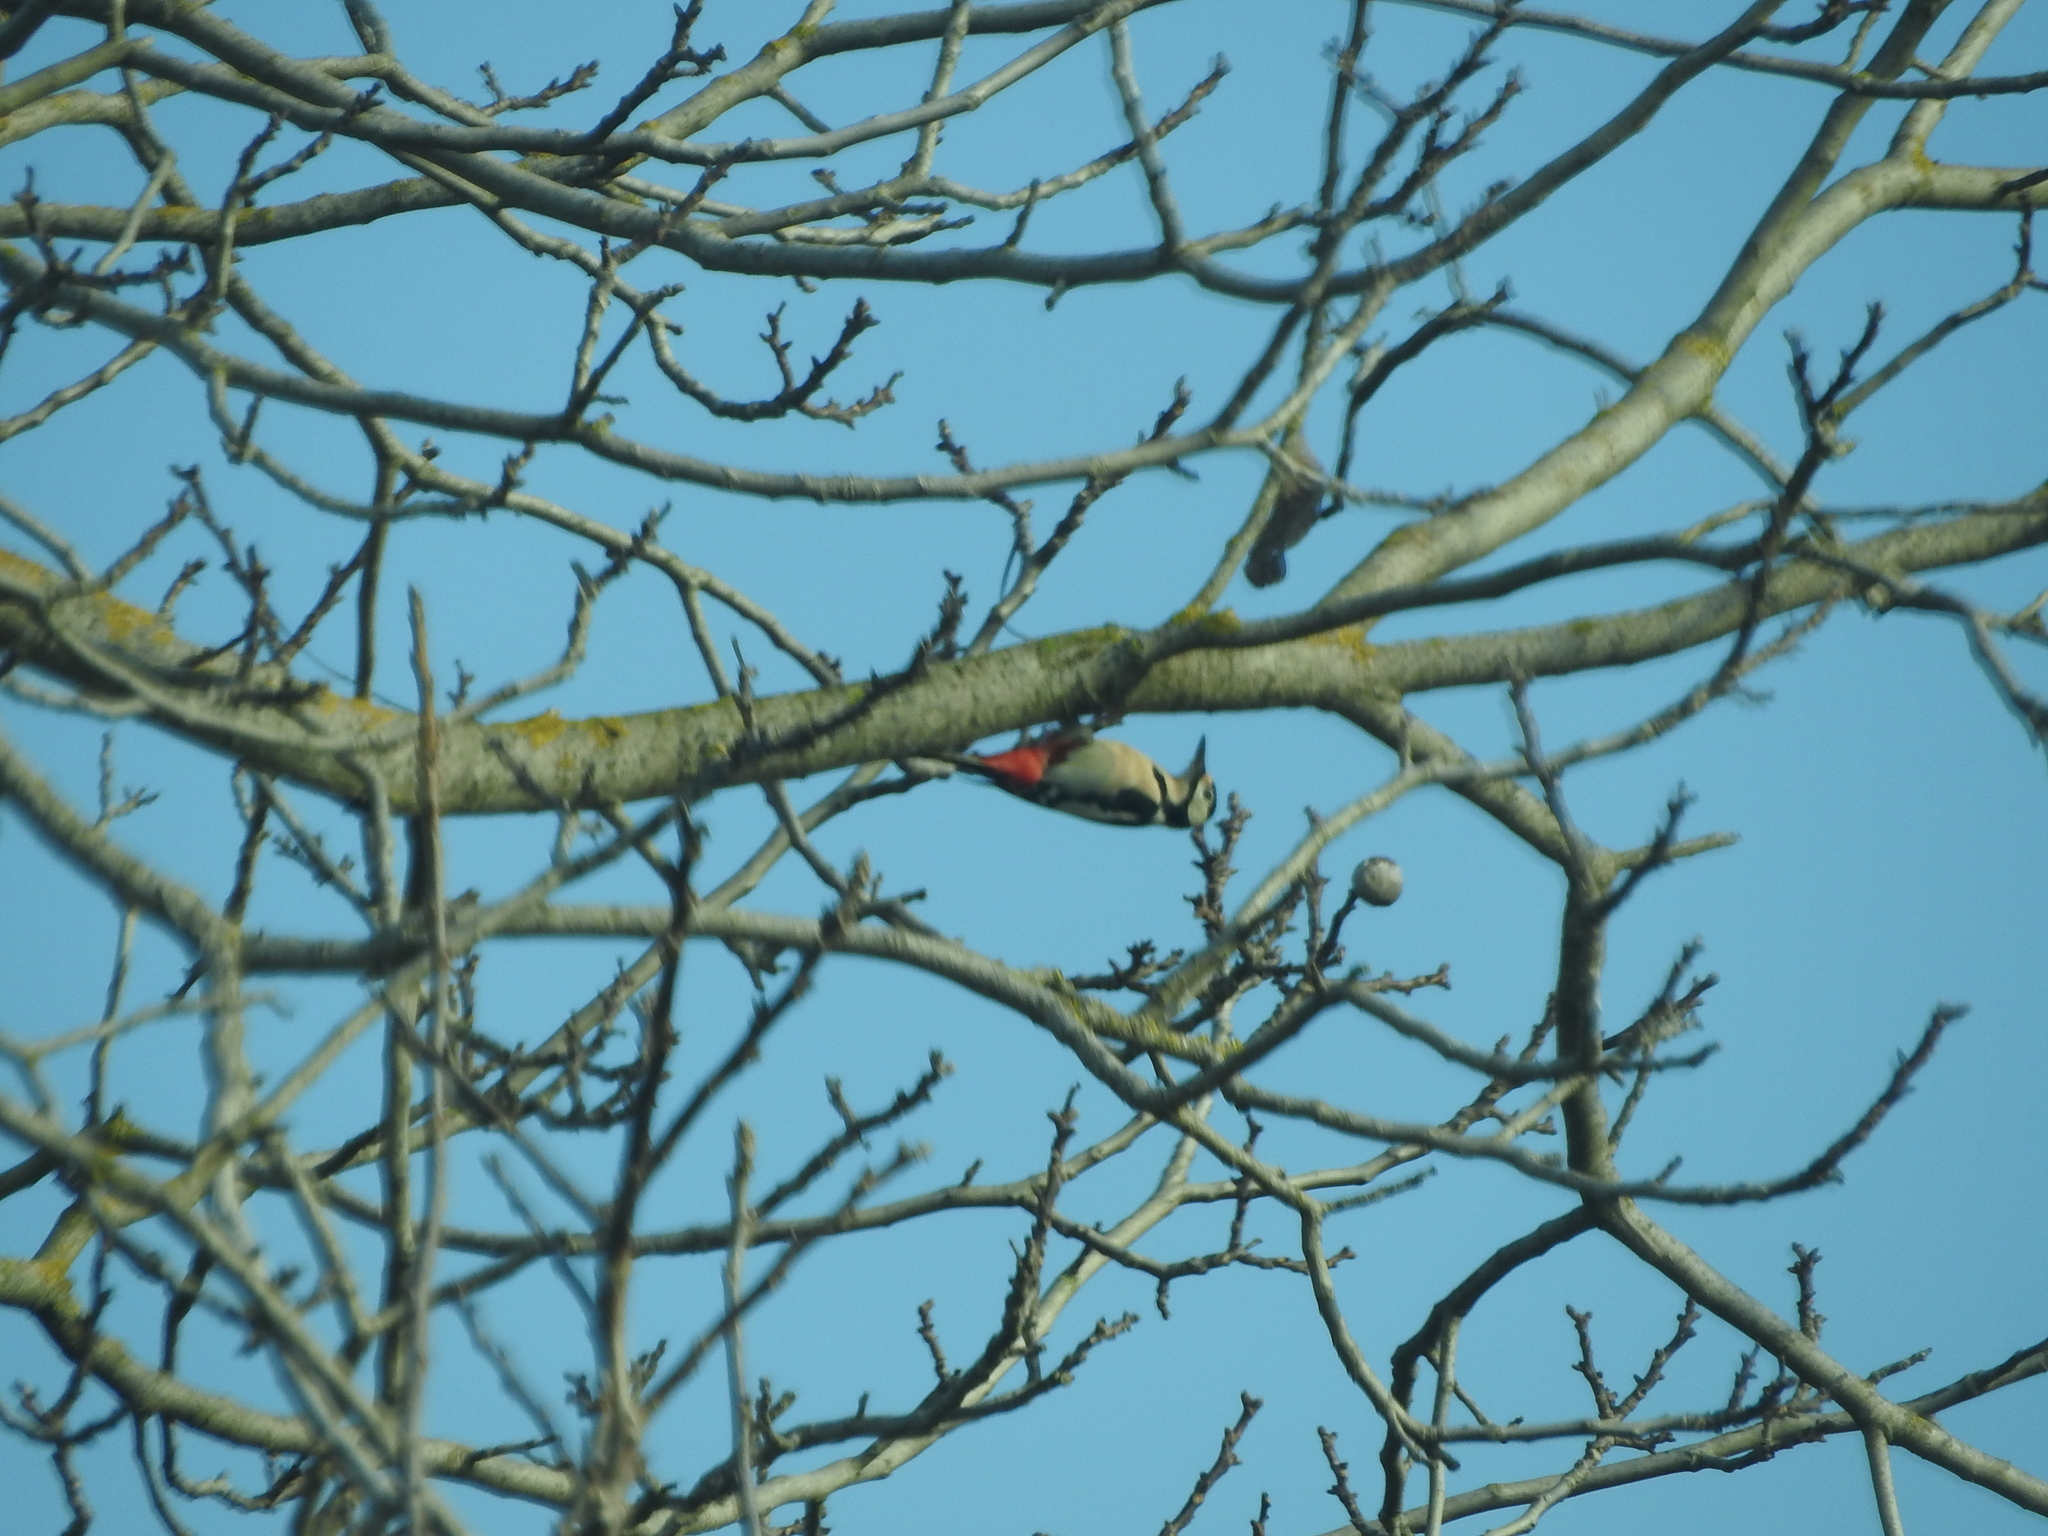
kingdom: Animalia
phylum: Chordata
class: Aves
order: Piciformes
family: Picidae
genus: Dendrocopos
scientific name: Dendrocopos major
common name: Great spotted woodpecker
